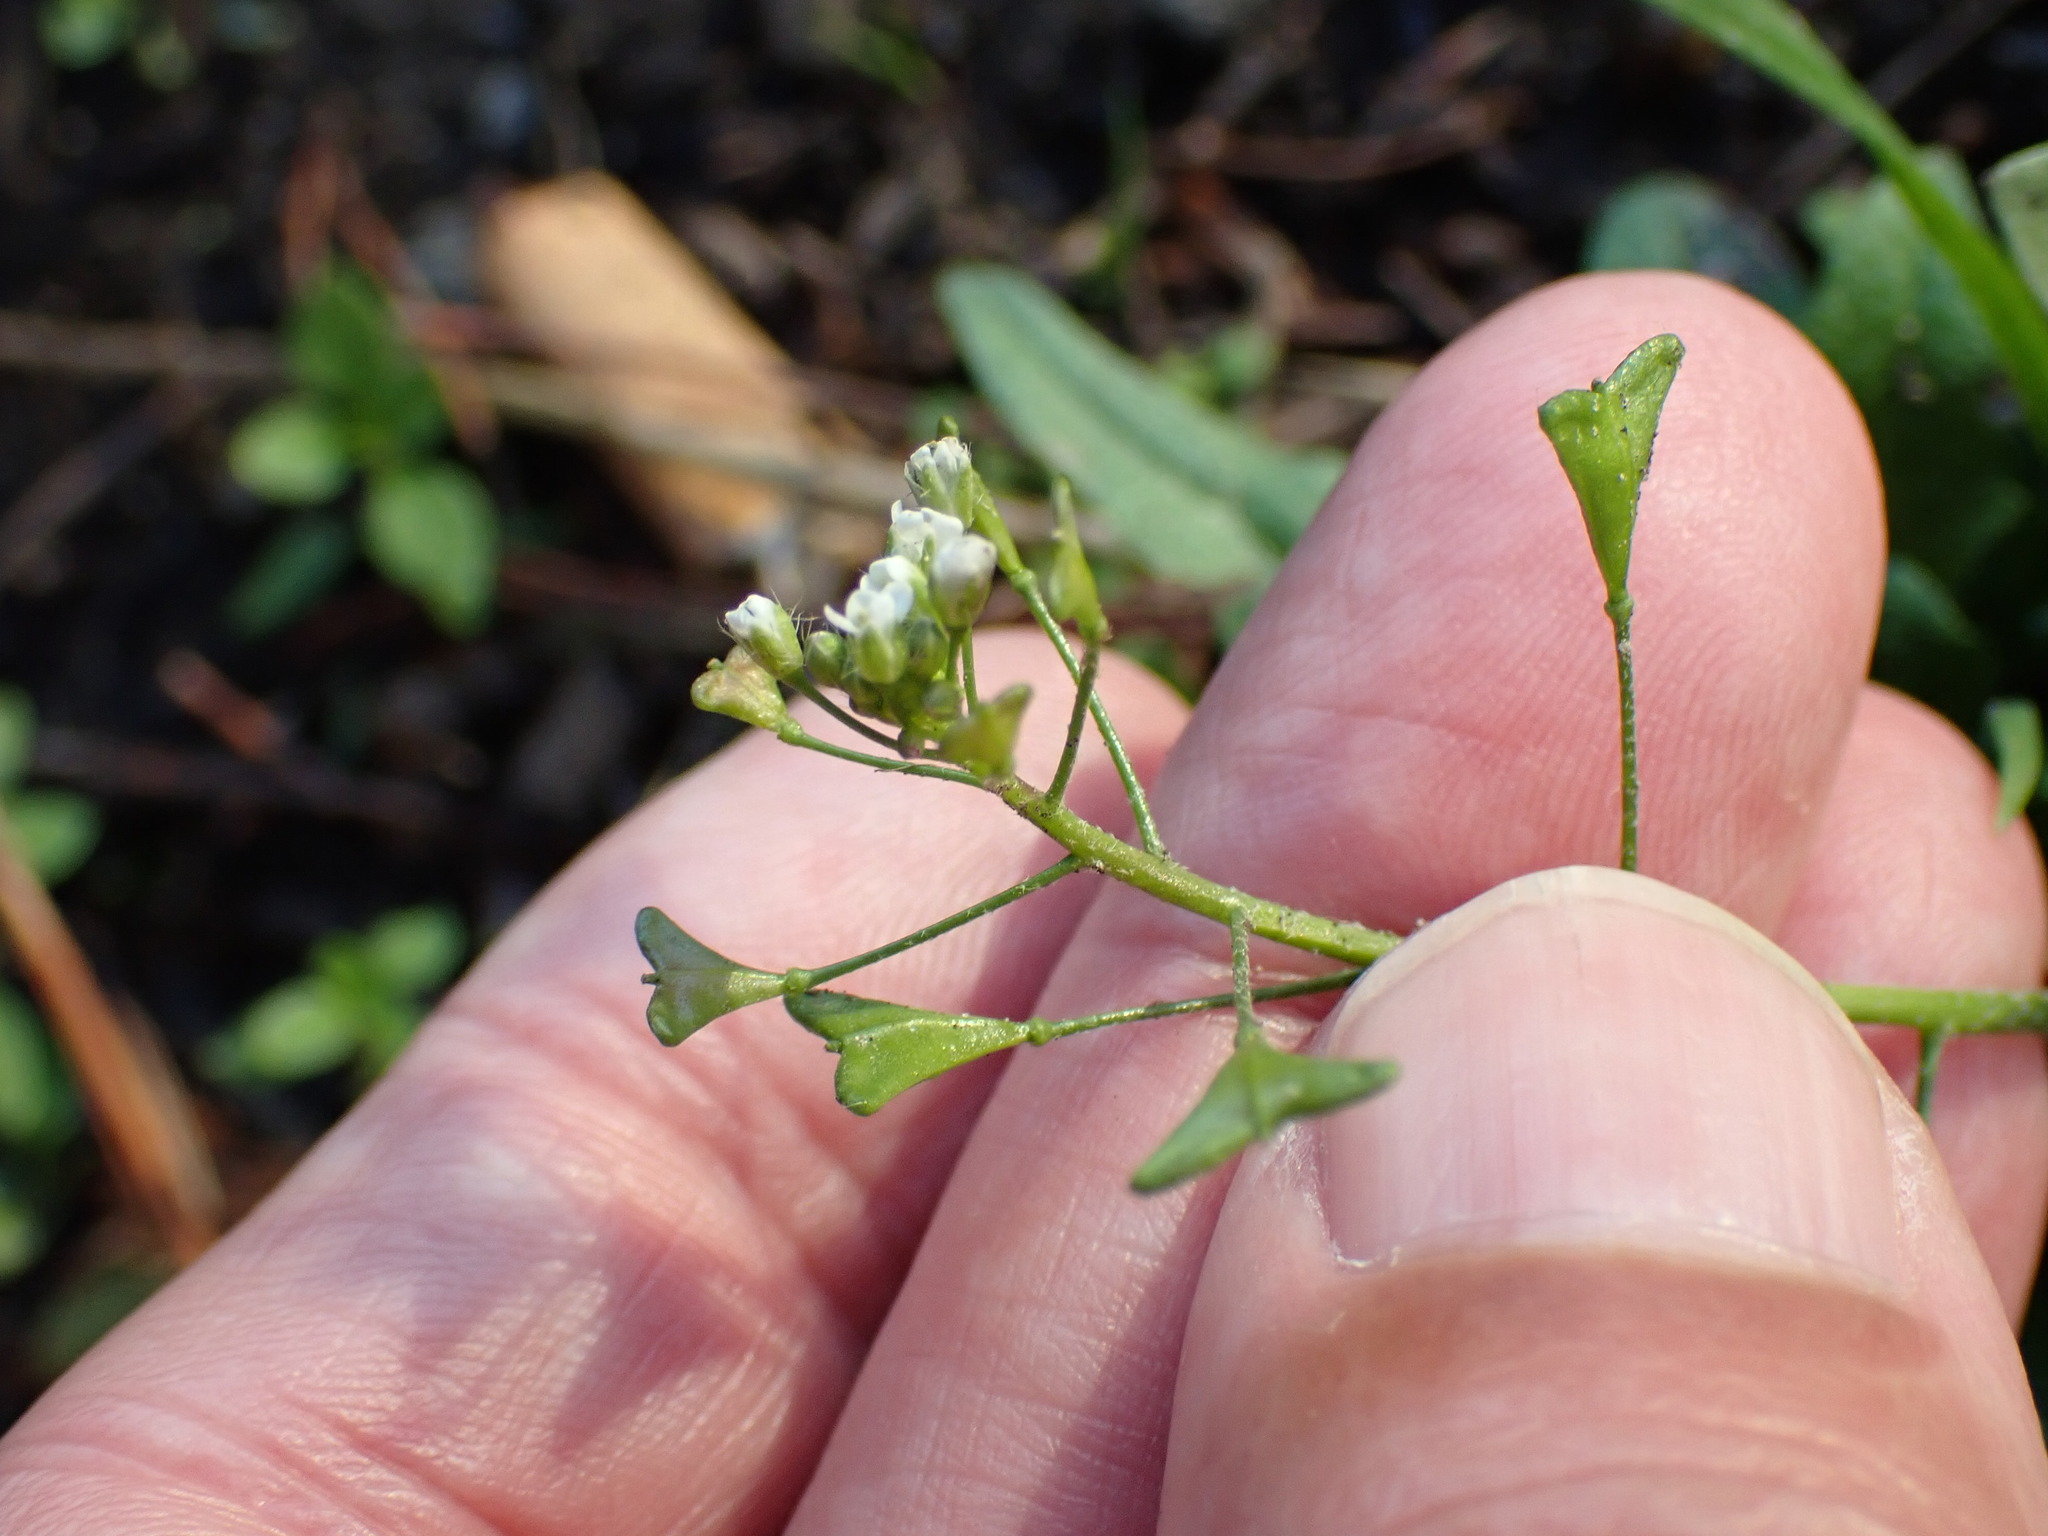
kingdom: Plantae
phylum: Tracheophyta
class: Magnoliopsida
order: Brassicales
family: Brassicaceae
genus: Capsella
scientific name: Capsella bursa-pastoris
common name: Shepherd's purse
